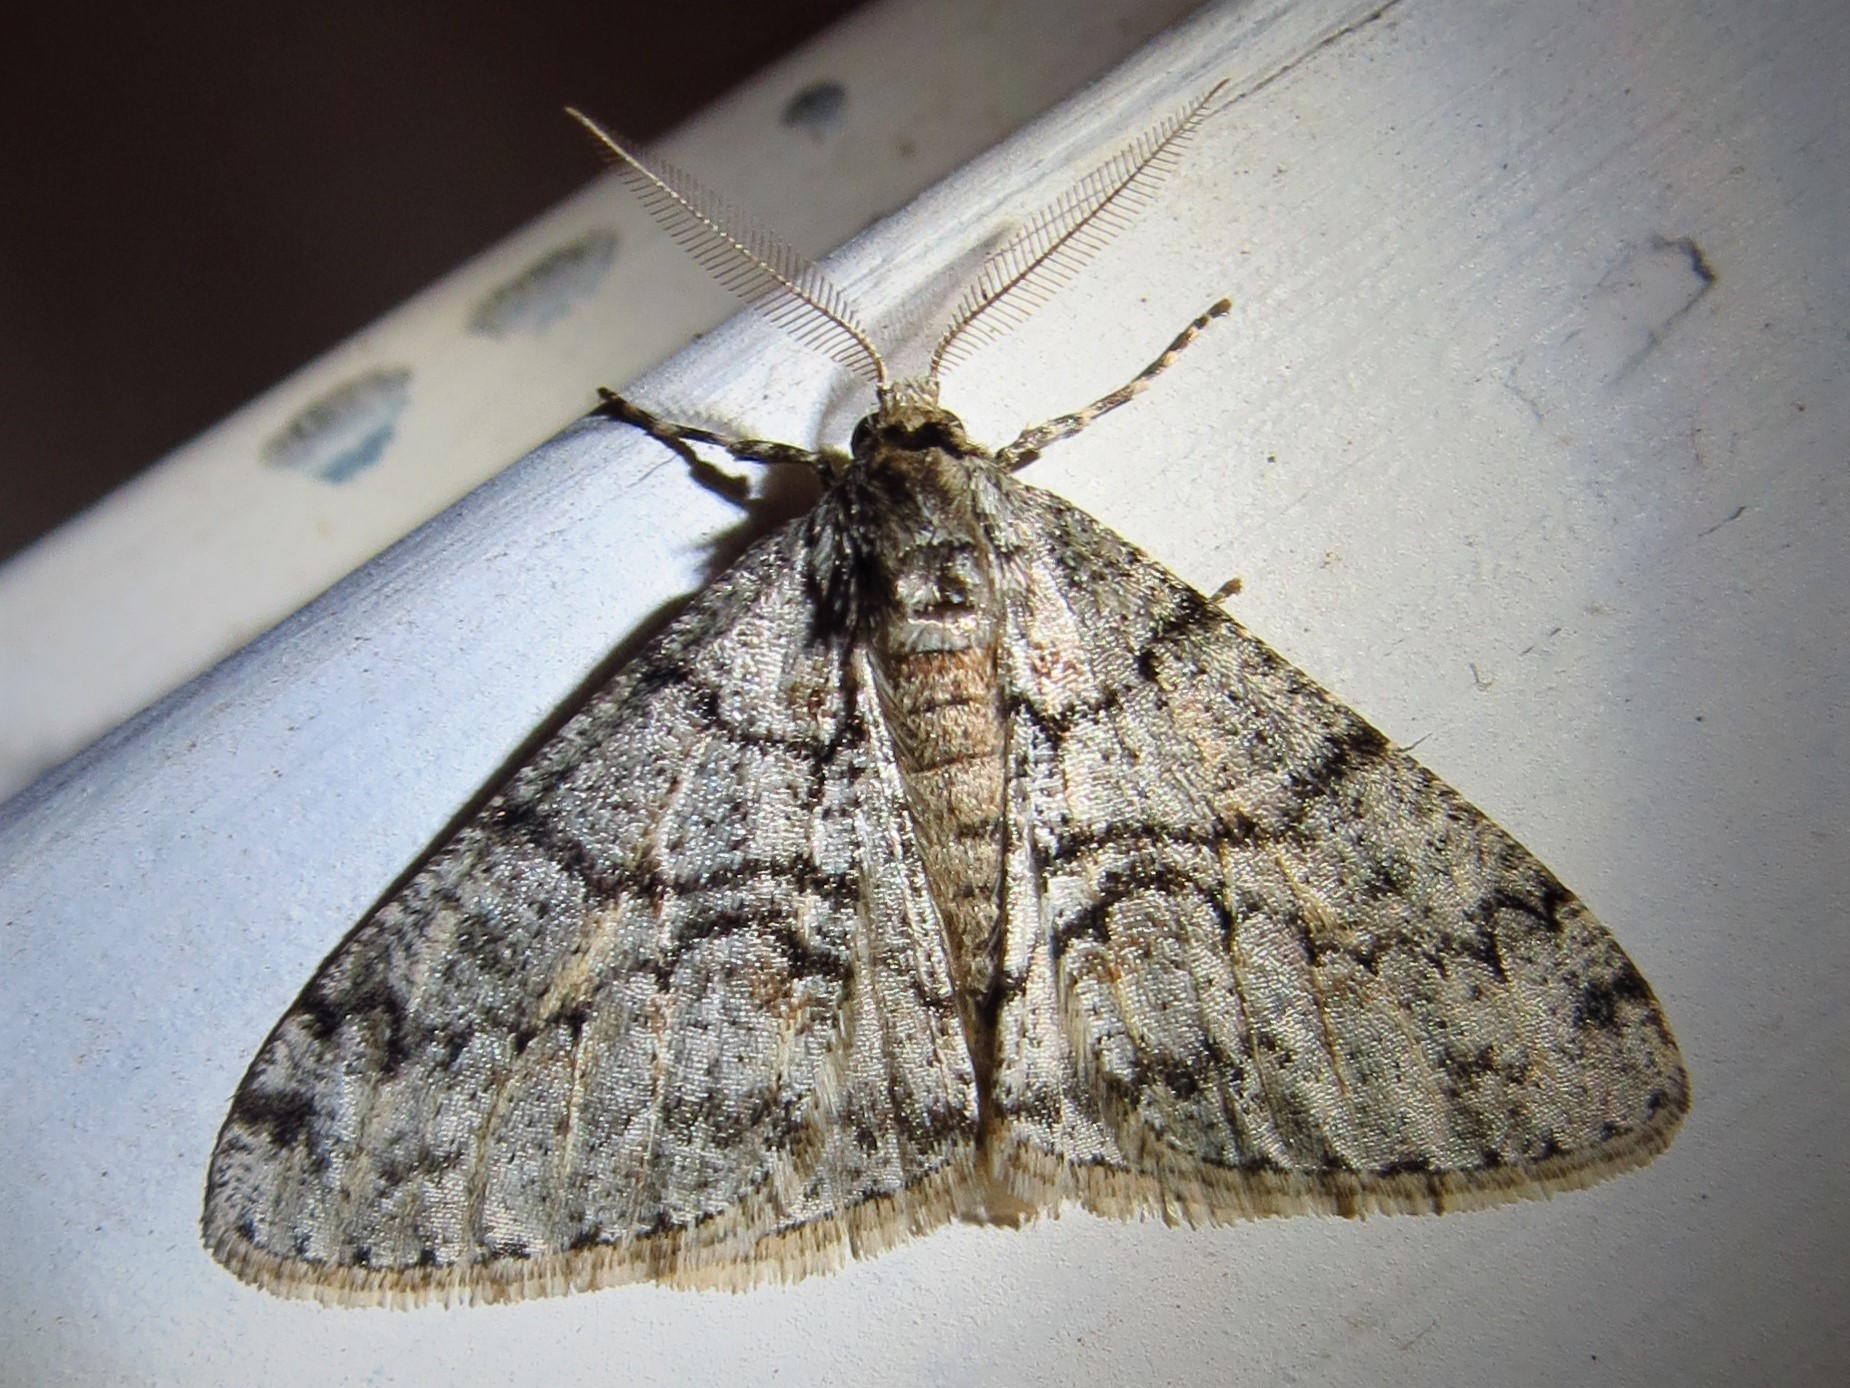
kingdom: Animalia
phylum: Arthropoda
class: Insecta
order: Lepidoptera
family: Geometridae
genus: Phigalia
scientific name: Phigalia denticulata
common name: Toothed phigalia
